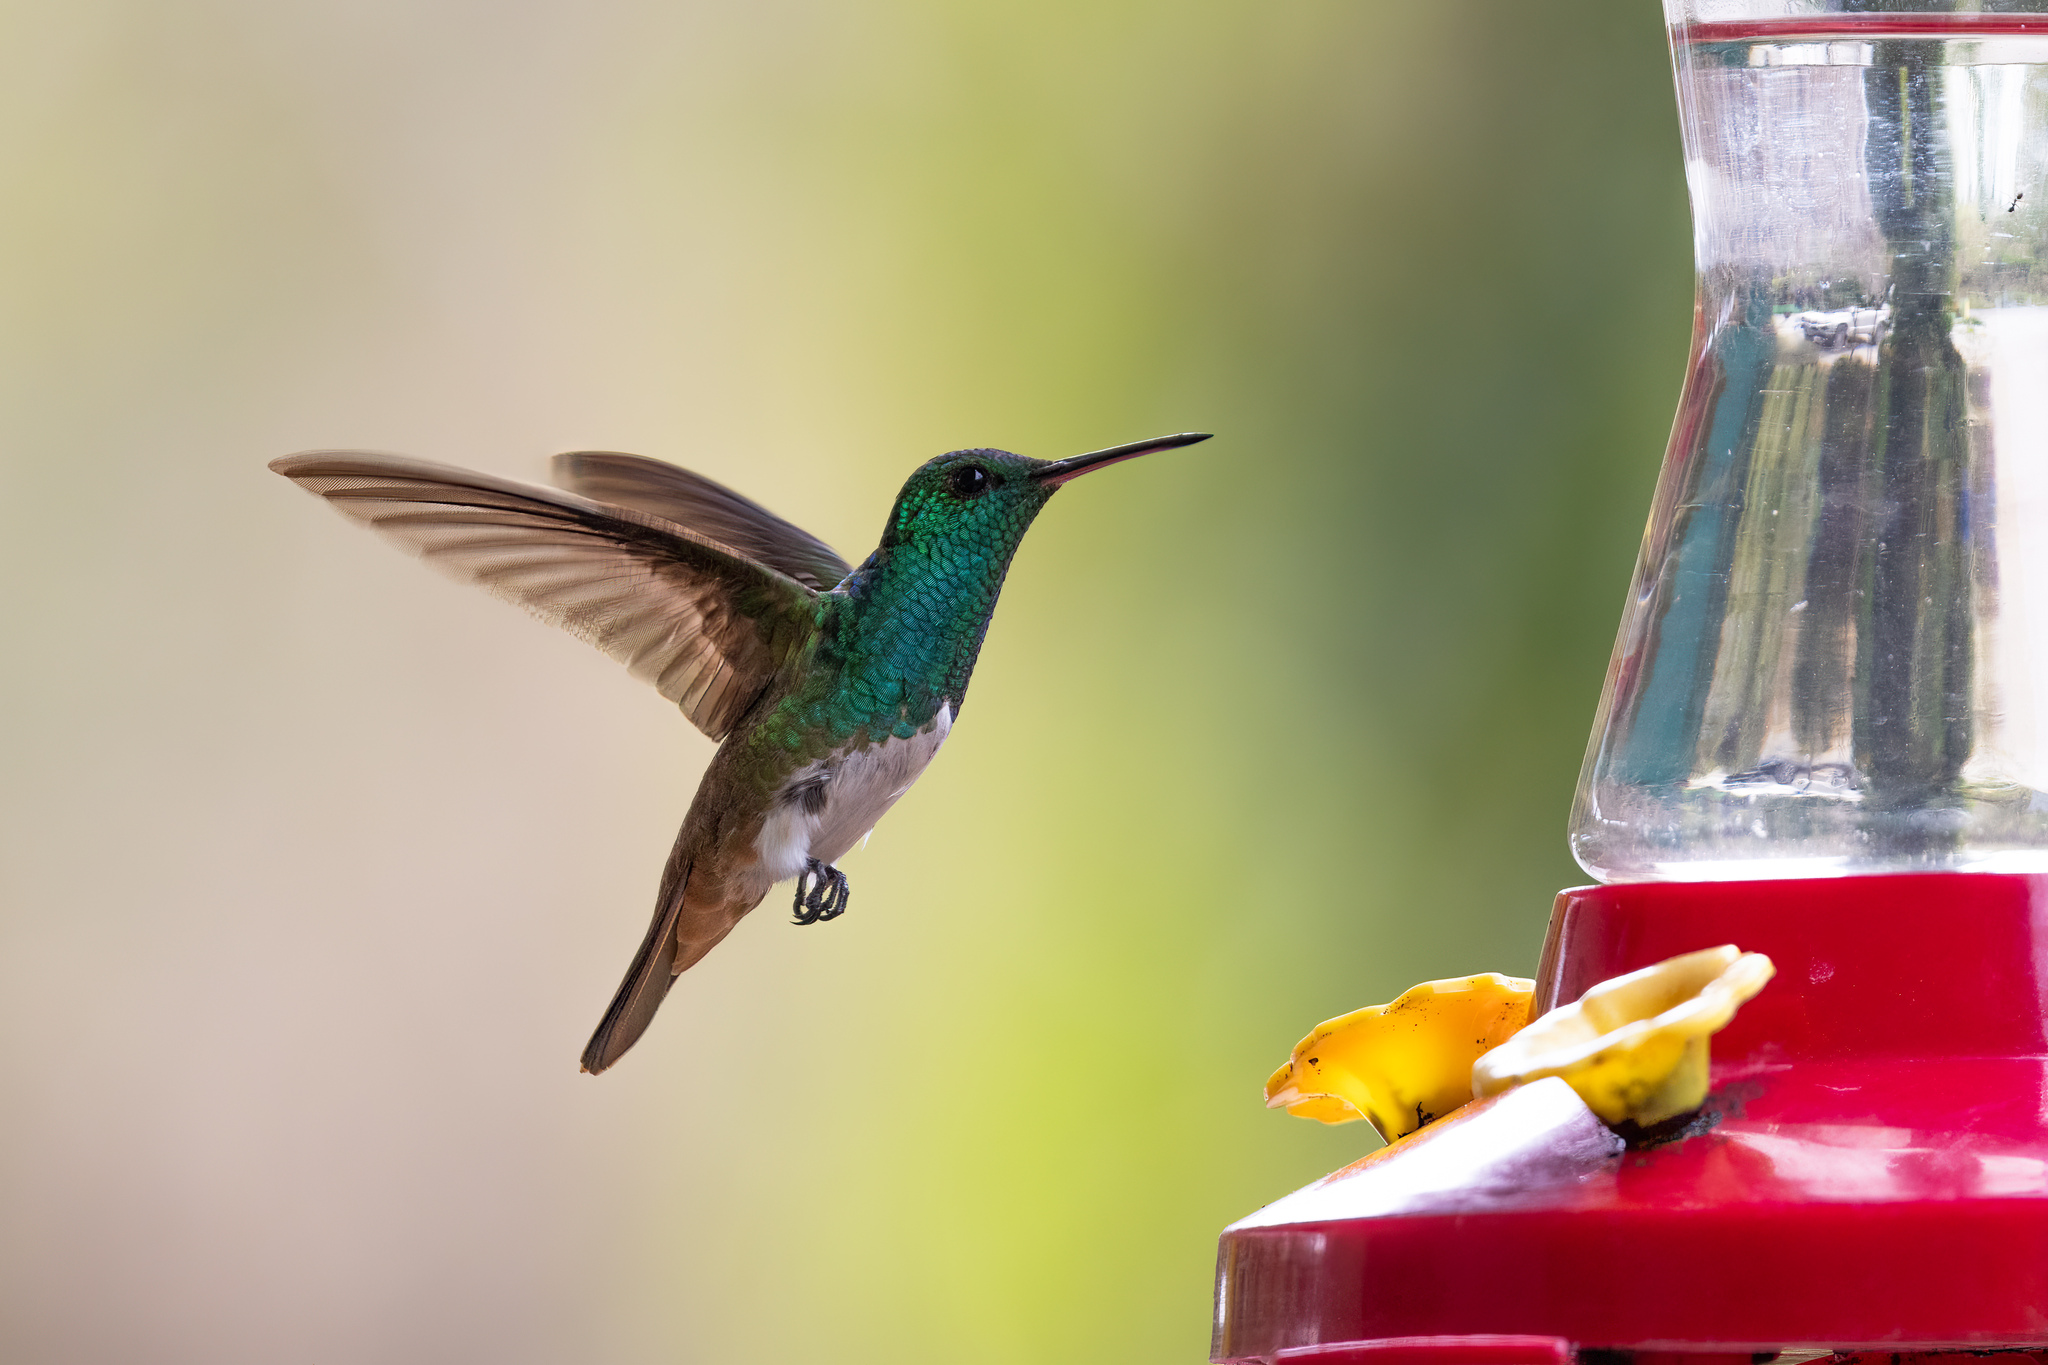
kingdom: Animalia
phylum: Chordata
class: Aves
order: Apodiformes
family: Trochilidae
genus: Saucerottia
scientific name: Saucerottia edward
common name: Snowy-bellied hummingbird
